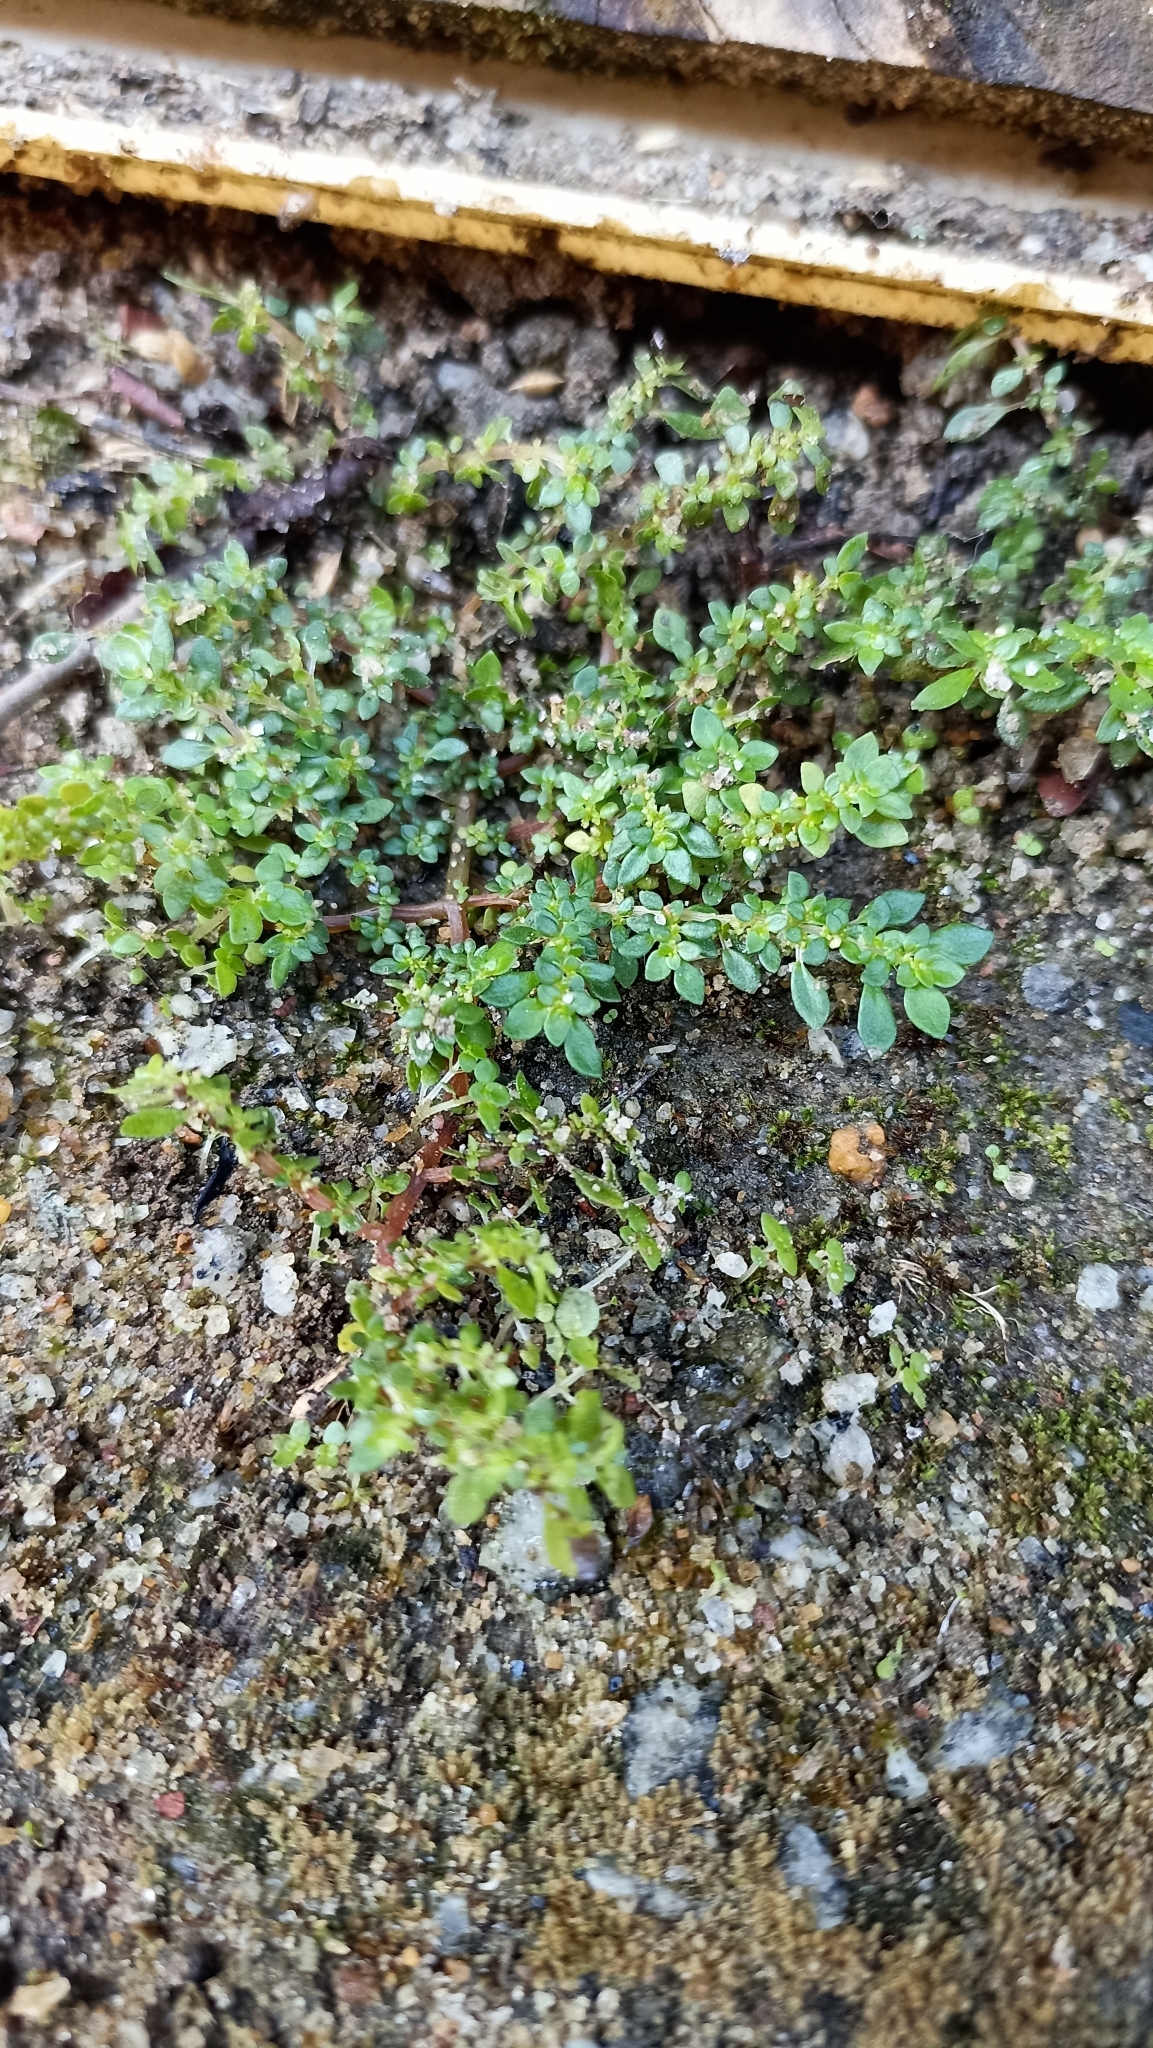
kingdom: Plantae
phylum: Tracheophyta
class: Magnoliopsida
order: Rosales
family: Urticaceae
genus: Pilea
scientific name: Pilea microphylla
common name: Artillery-plant
